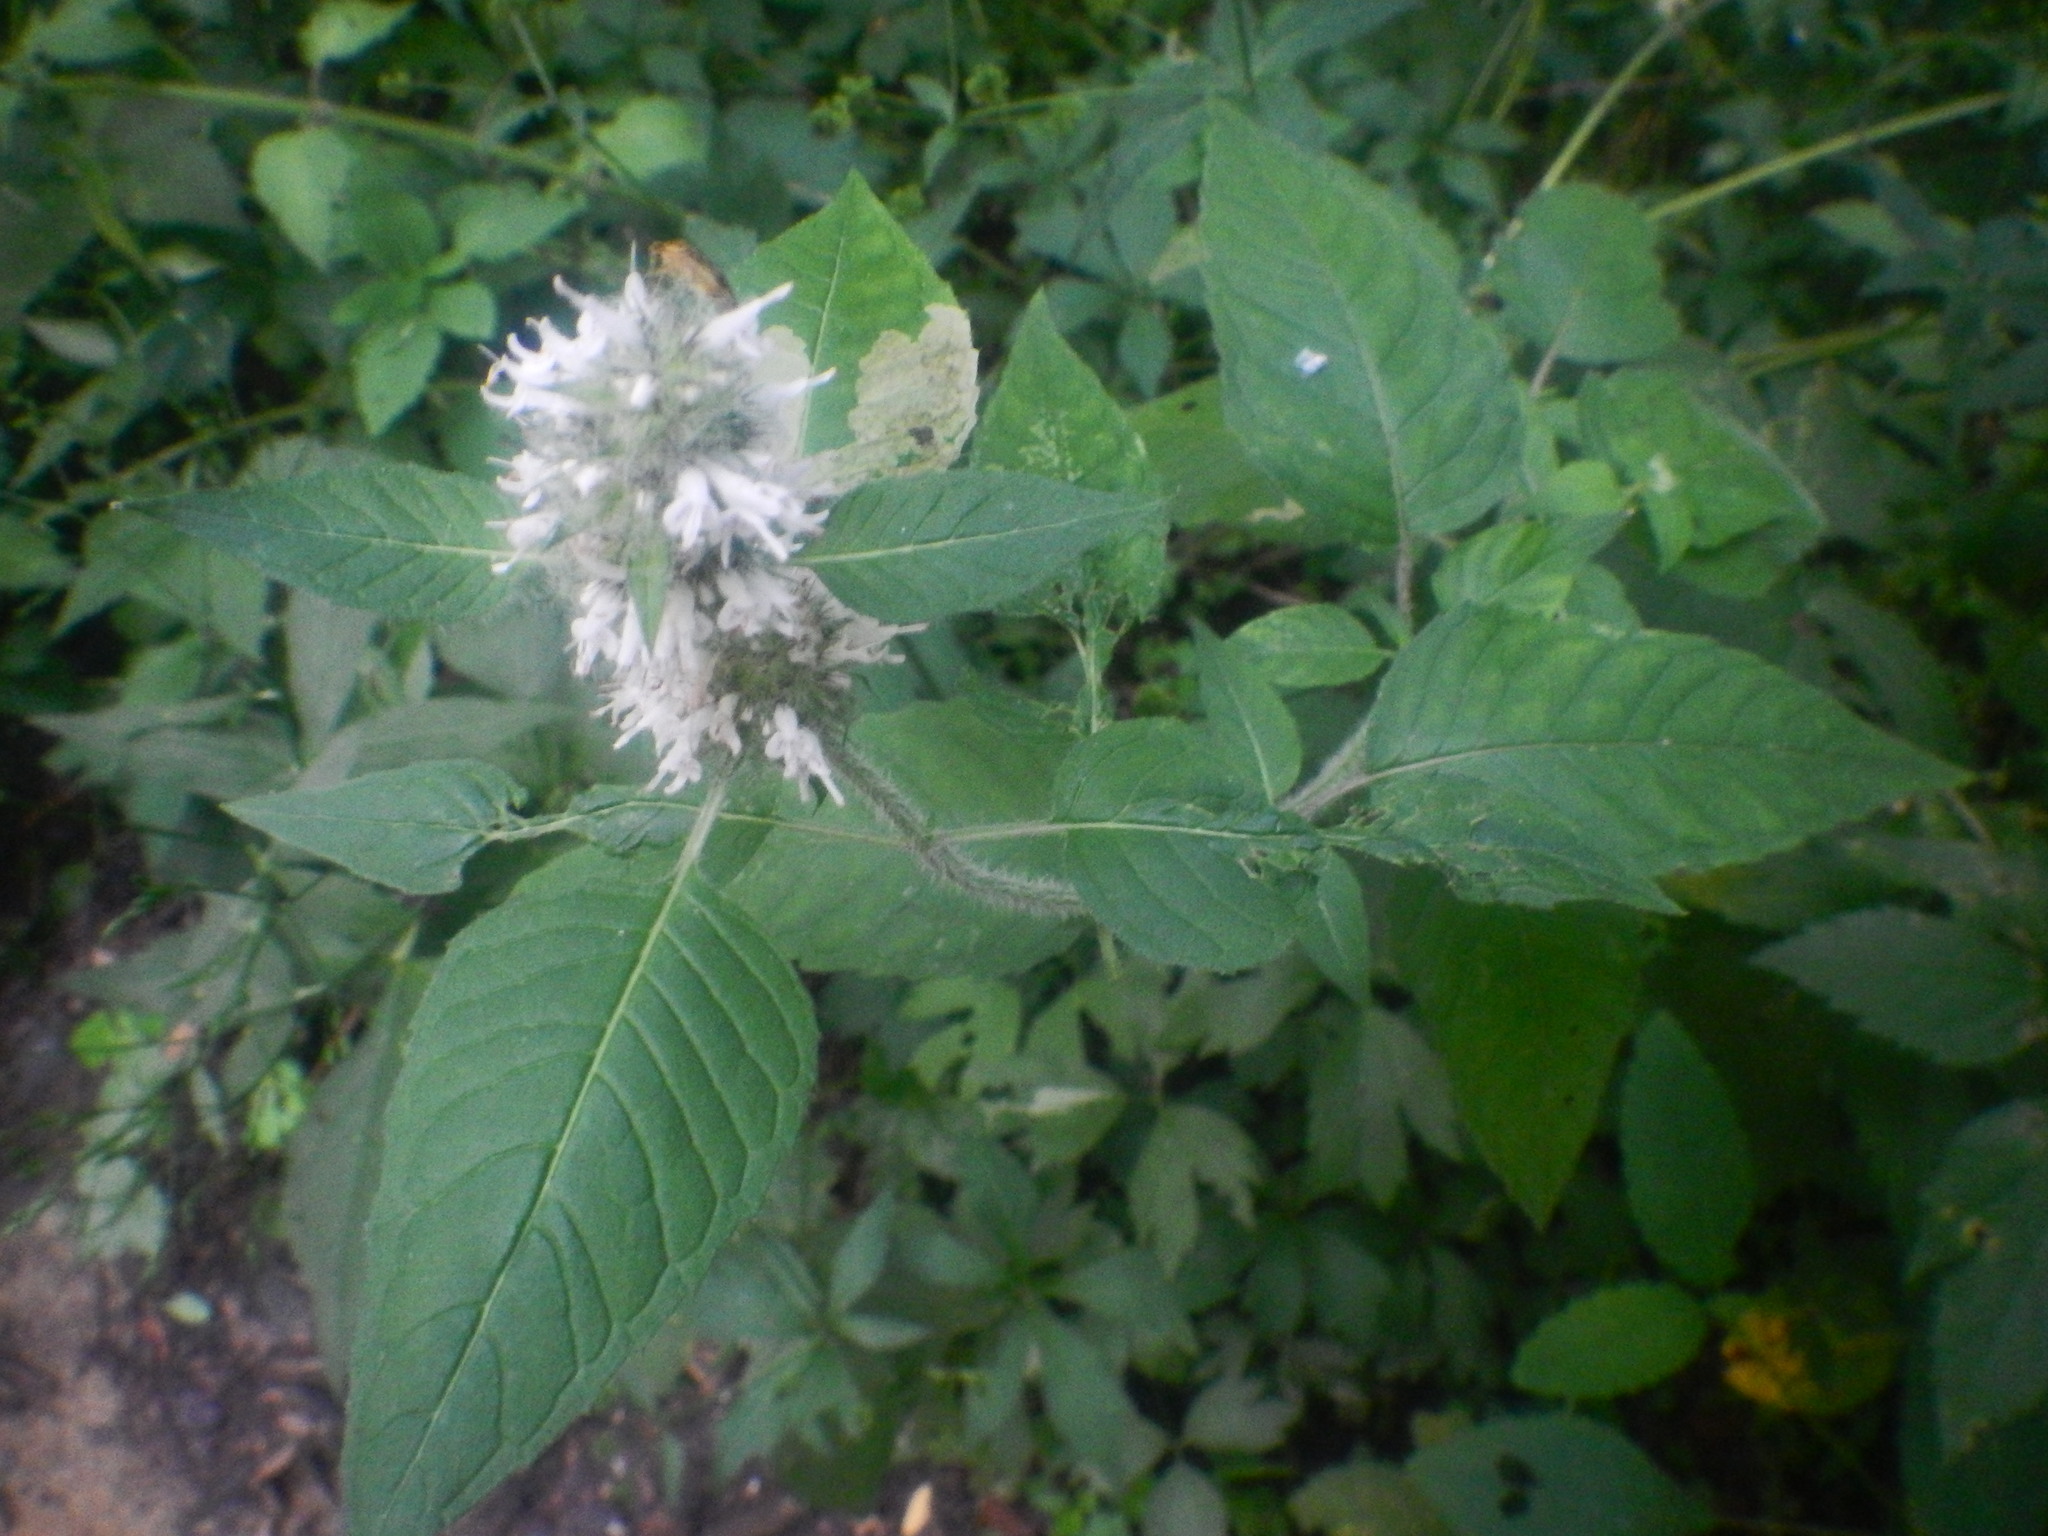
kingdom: Plantae
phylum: Tracheophyta
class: Magnoliopsida
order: Lamiales
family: Lamiaceae
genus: Blephilia
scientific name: Blephilia hirsuta
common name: Hairy blephilia
